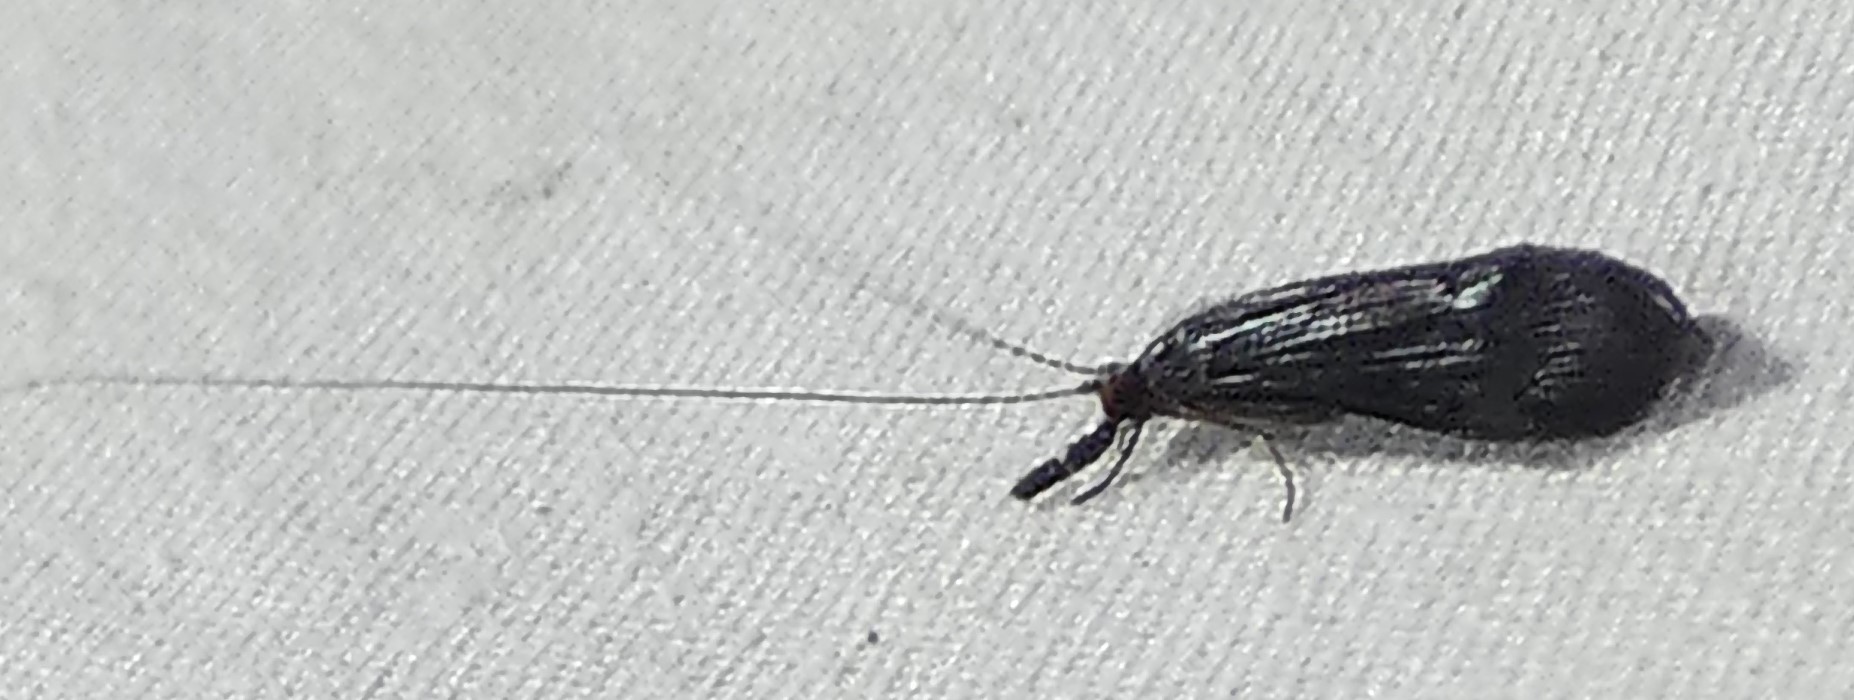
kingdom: Animalia
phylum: Arthropoda
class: Insecta
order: Trichoptera
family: Leptoceridae
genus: Mystacides
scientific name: Mystacides sepulchralis
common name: Black dancer caddisfly
